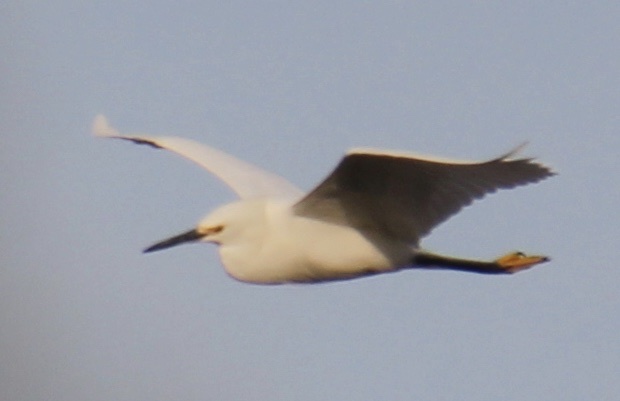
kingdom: Animalia
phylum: Chordata
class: Aves
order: Pelecaniformes
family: Ardeidae
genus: Egretta
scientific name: Egretta thula
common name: Snowy egret
